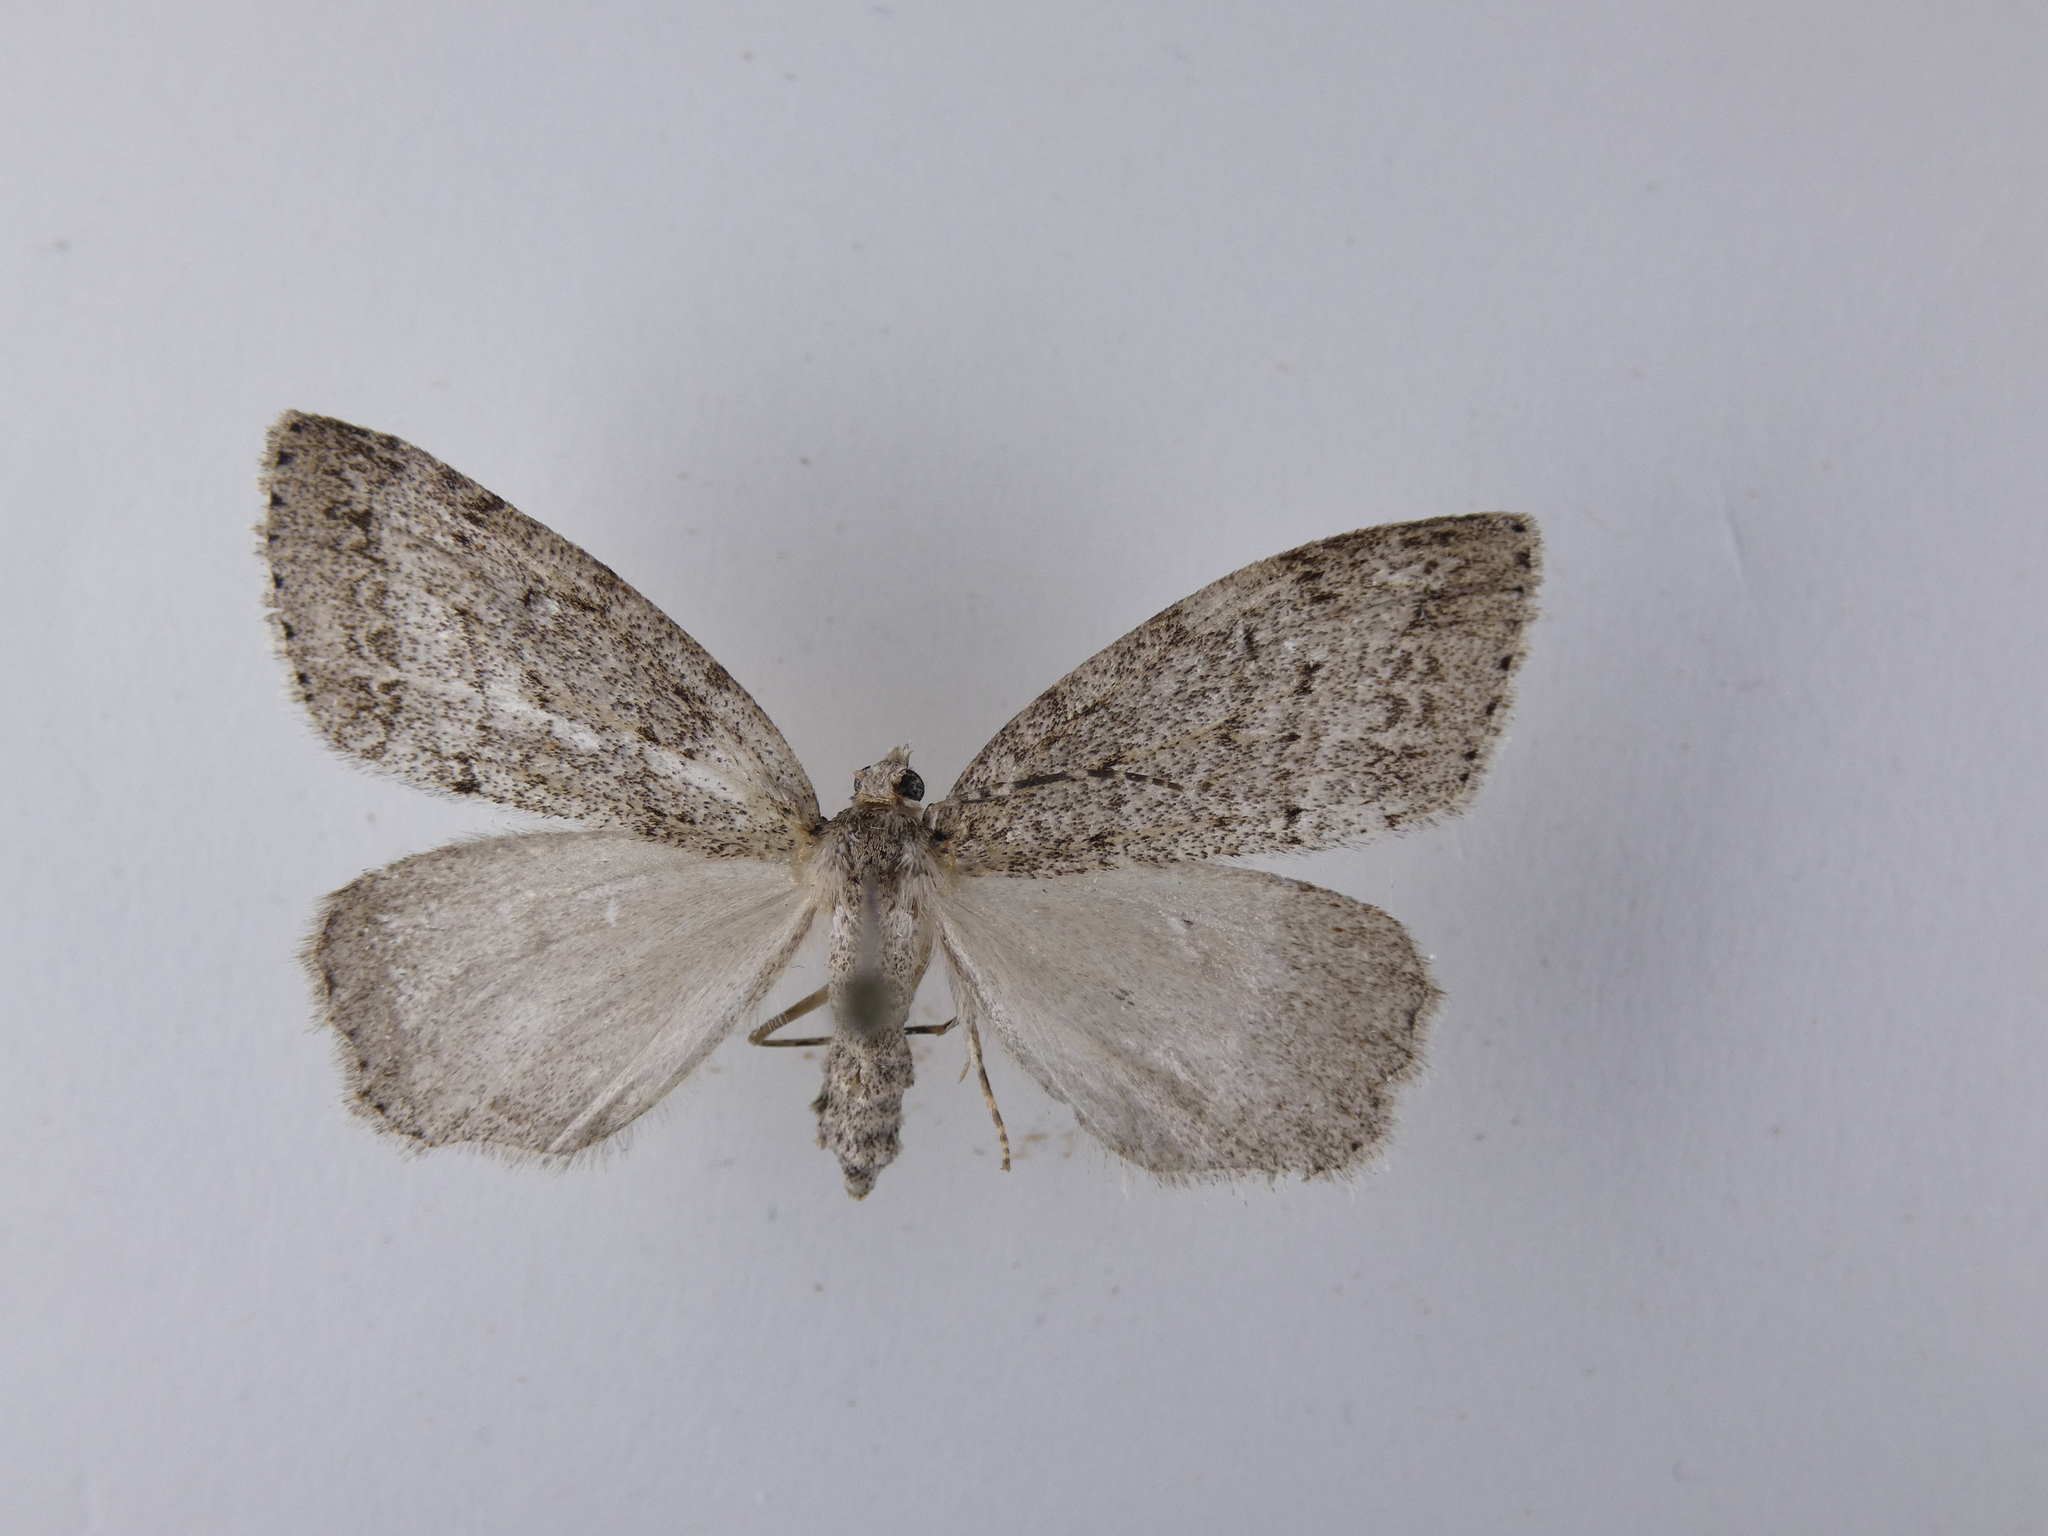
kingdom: Animalia
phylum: Arthropoda
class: Insecta
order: Lepidoptera
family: Geometridae
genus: Pseudocoremia
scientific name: Pseudocoremia fenerata
